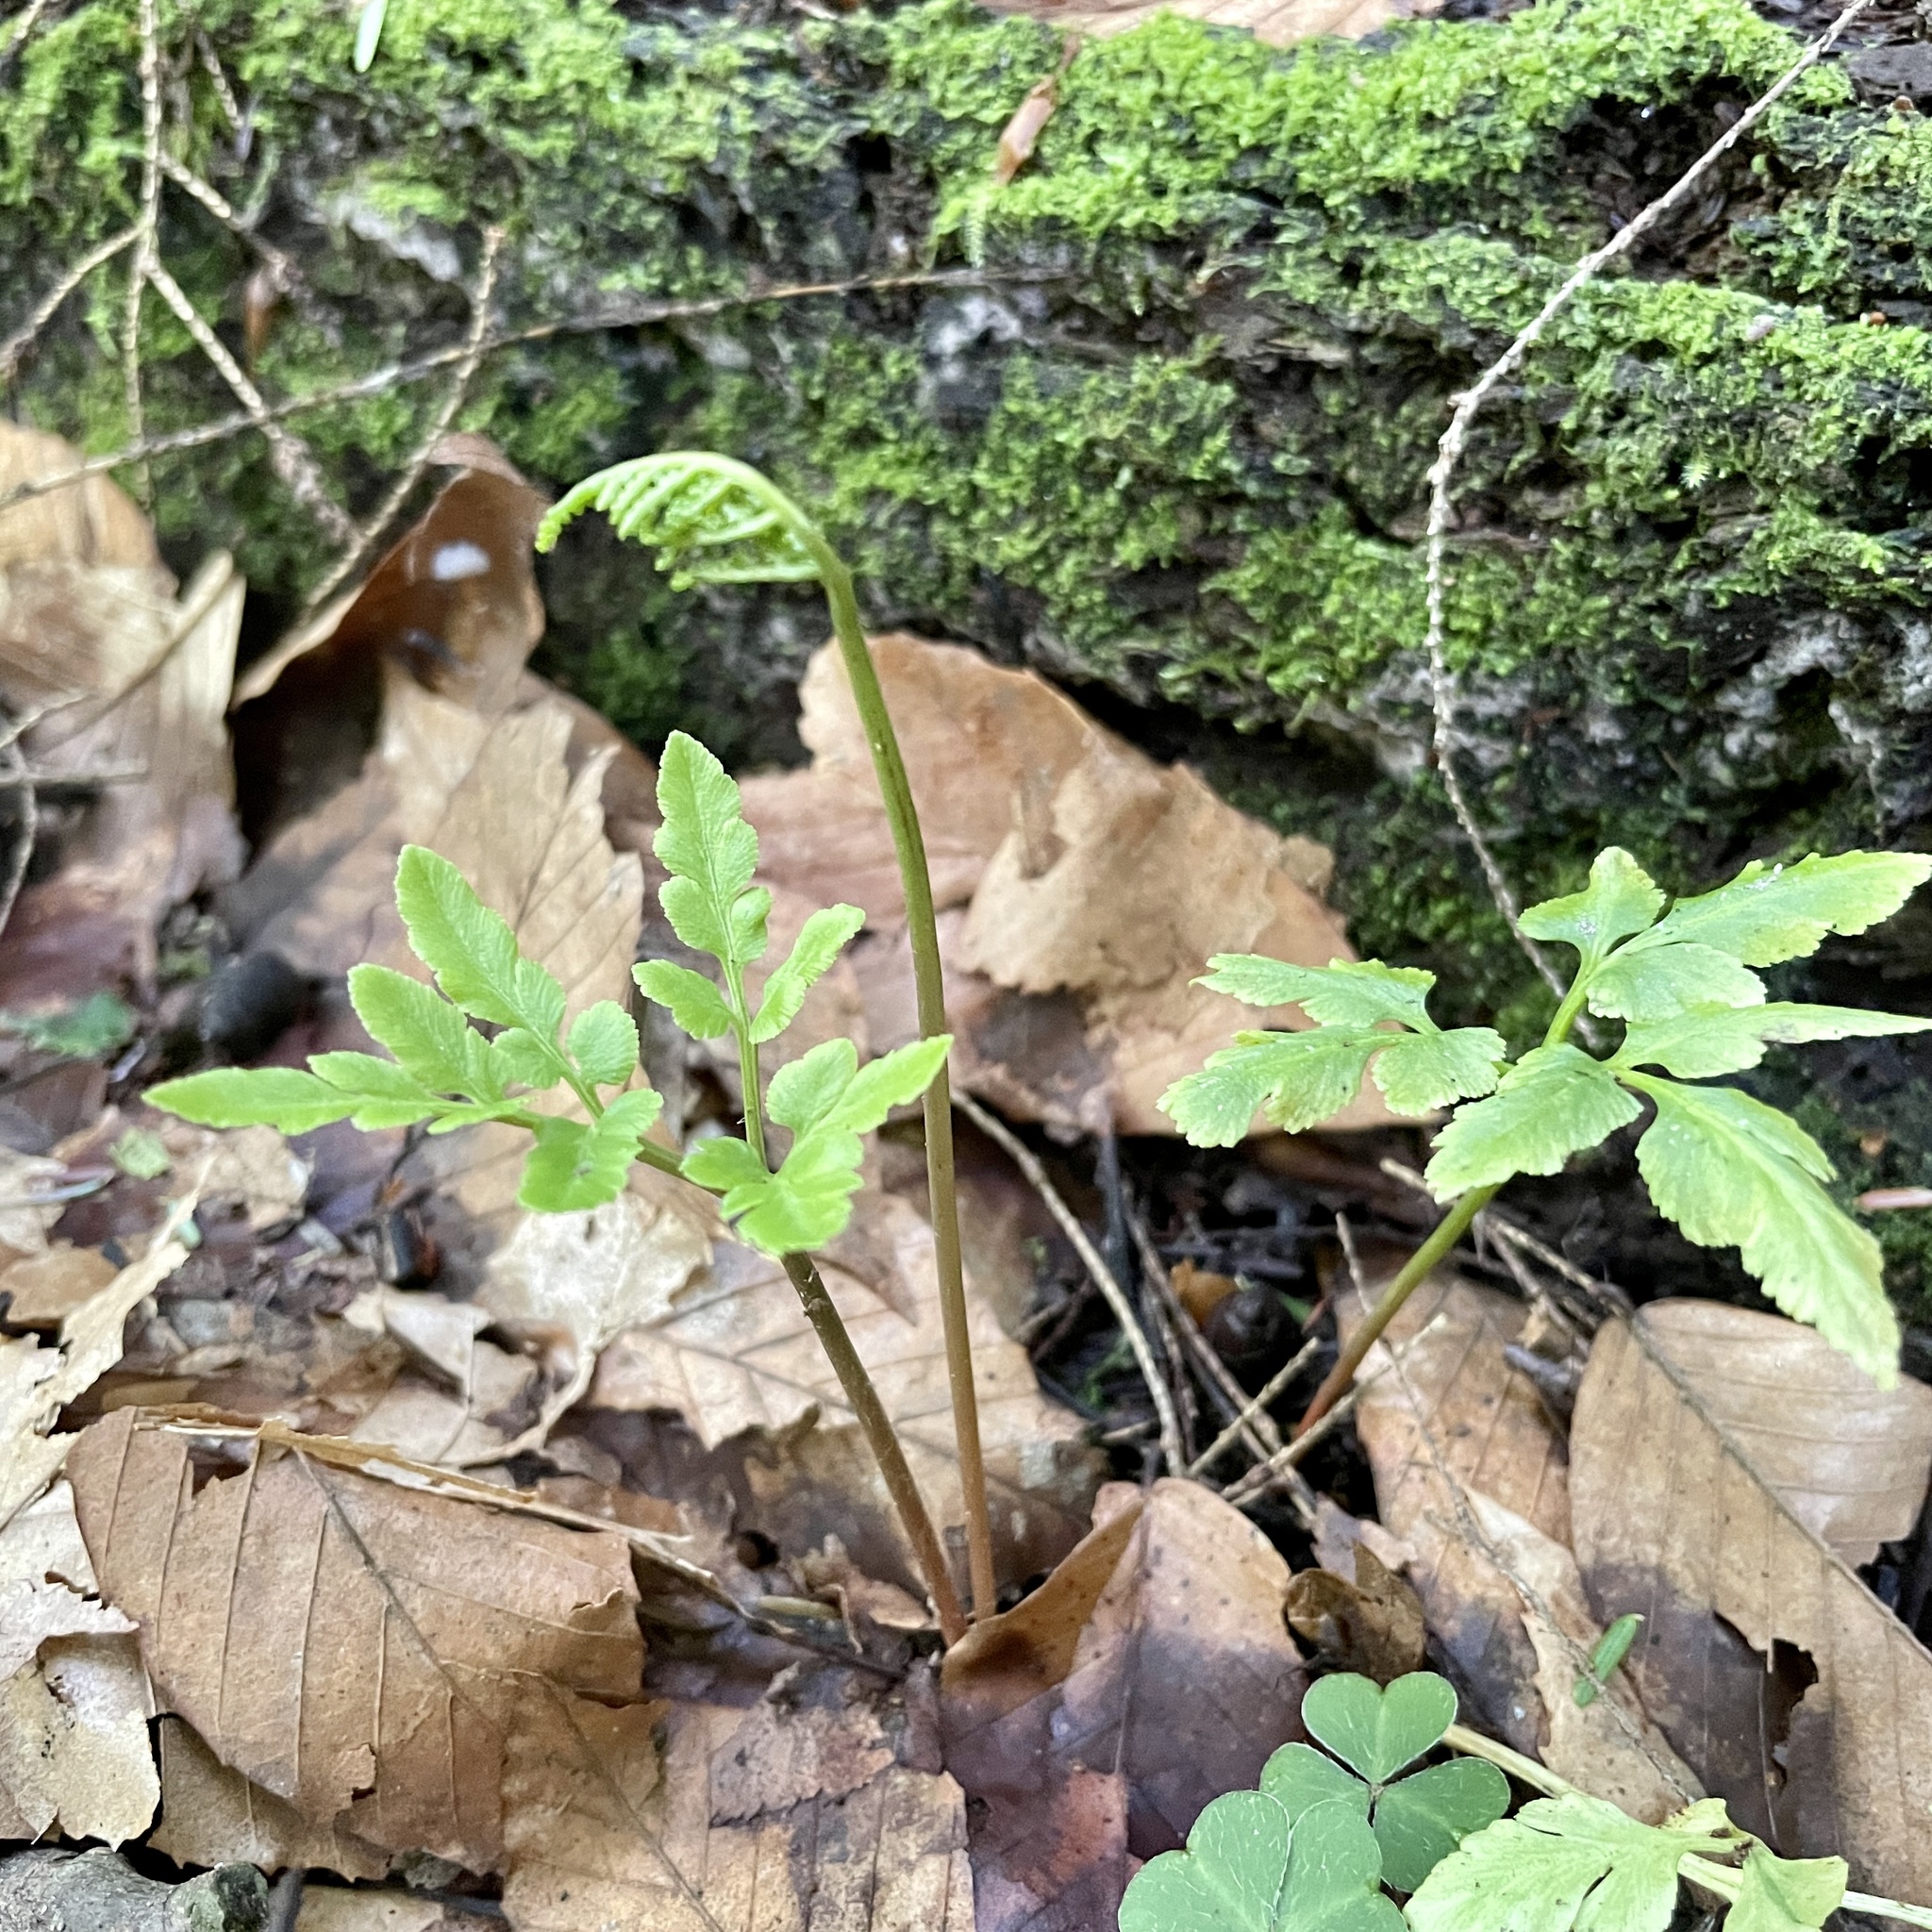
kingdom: Plantae
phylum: Tracheophyta
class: Polypodiopsida
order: Ophioglossales
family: Ophioglossaceae
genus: Sceptridium
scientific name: Sceptridium oneidense
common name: Blunt-lobed grapefern
